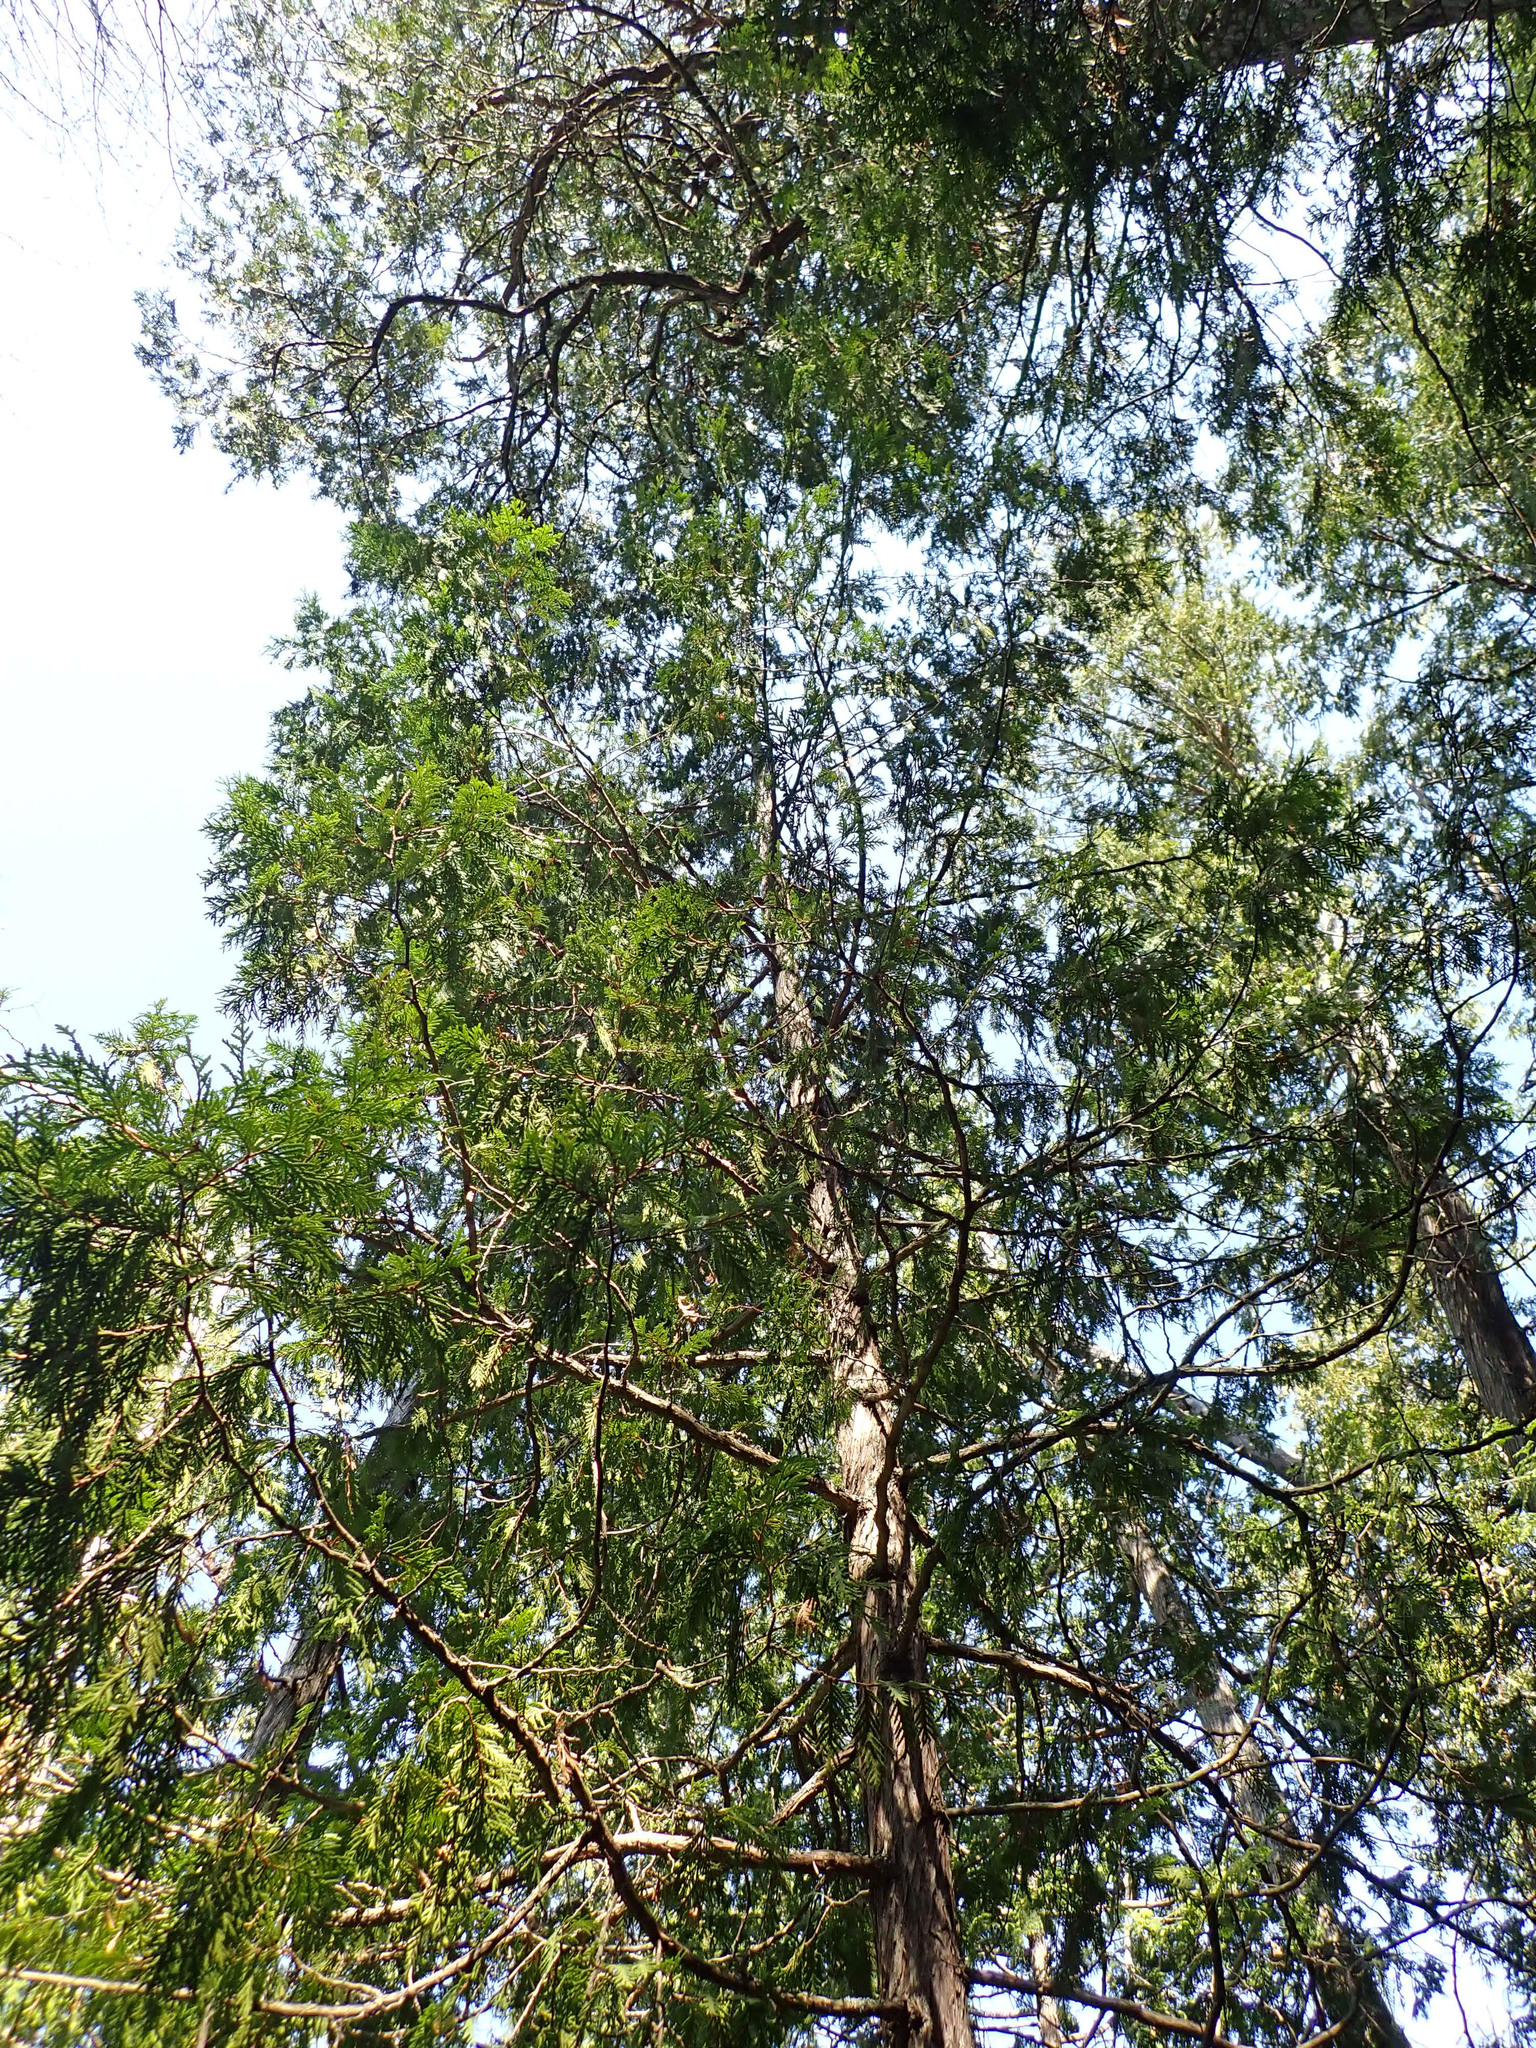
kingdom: Plantae
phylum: Tracheophyta
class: Pinopsida
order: Pinales
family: Cupressaceae
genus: Thuja
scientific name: Thuja occidentalis
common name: Northern white-cedar
